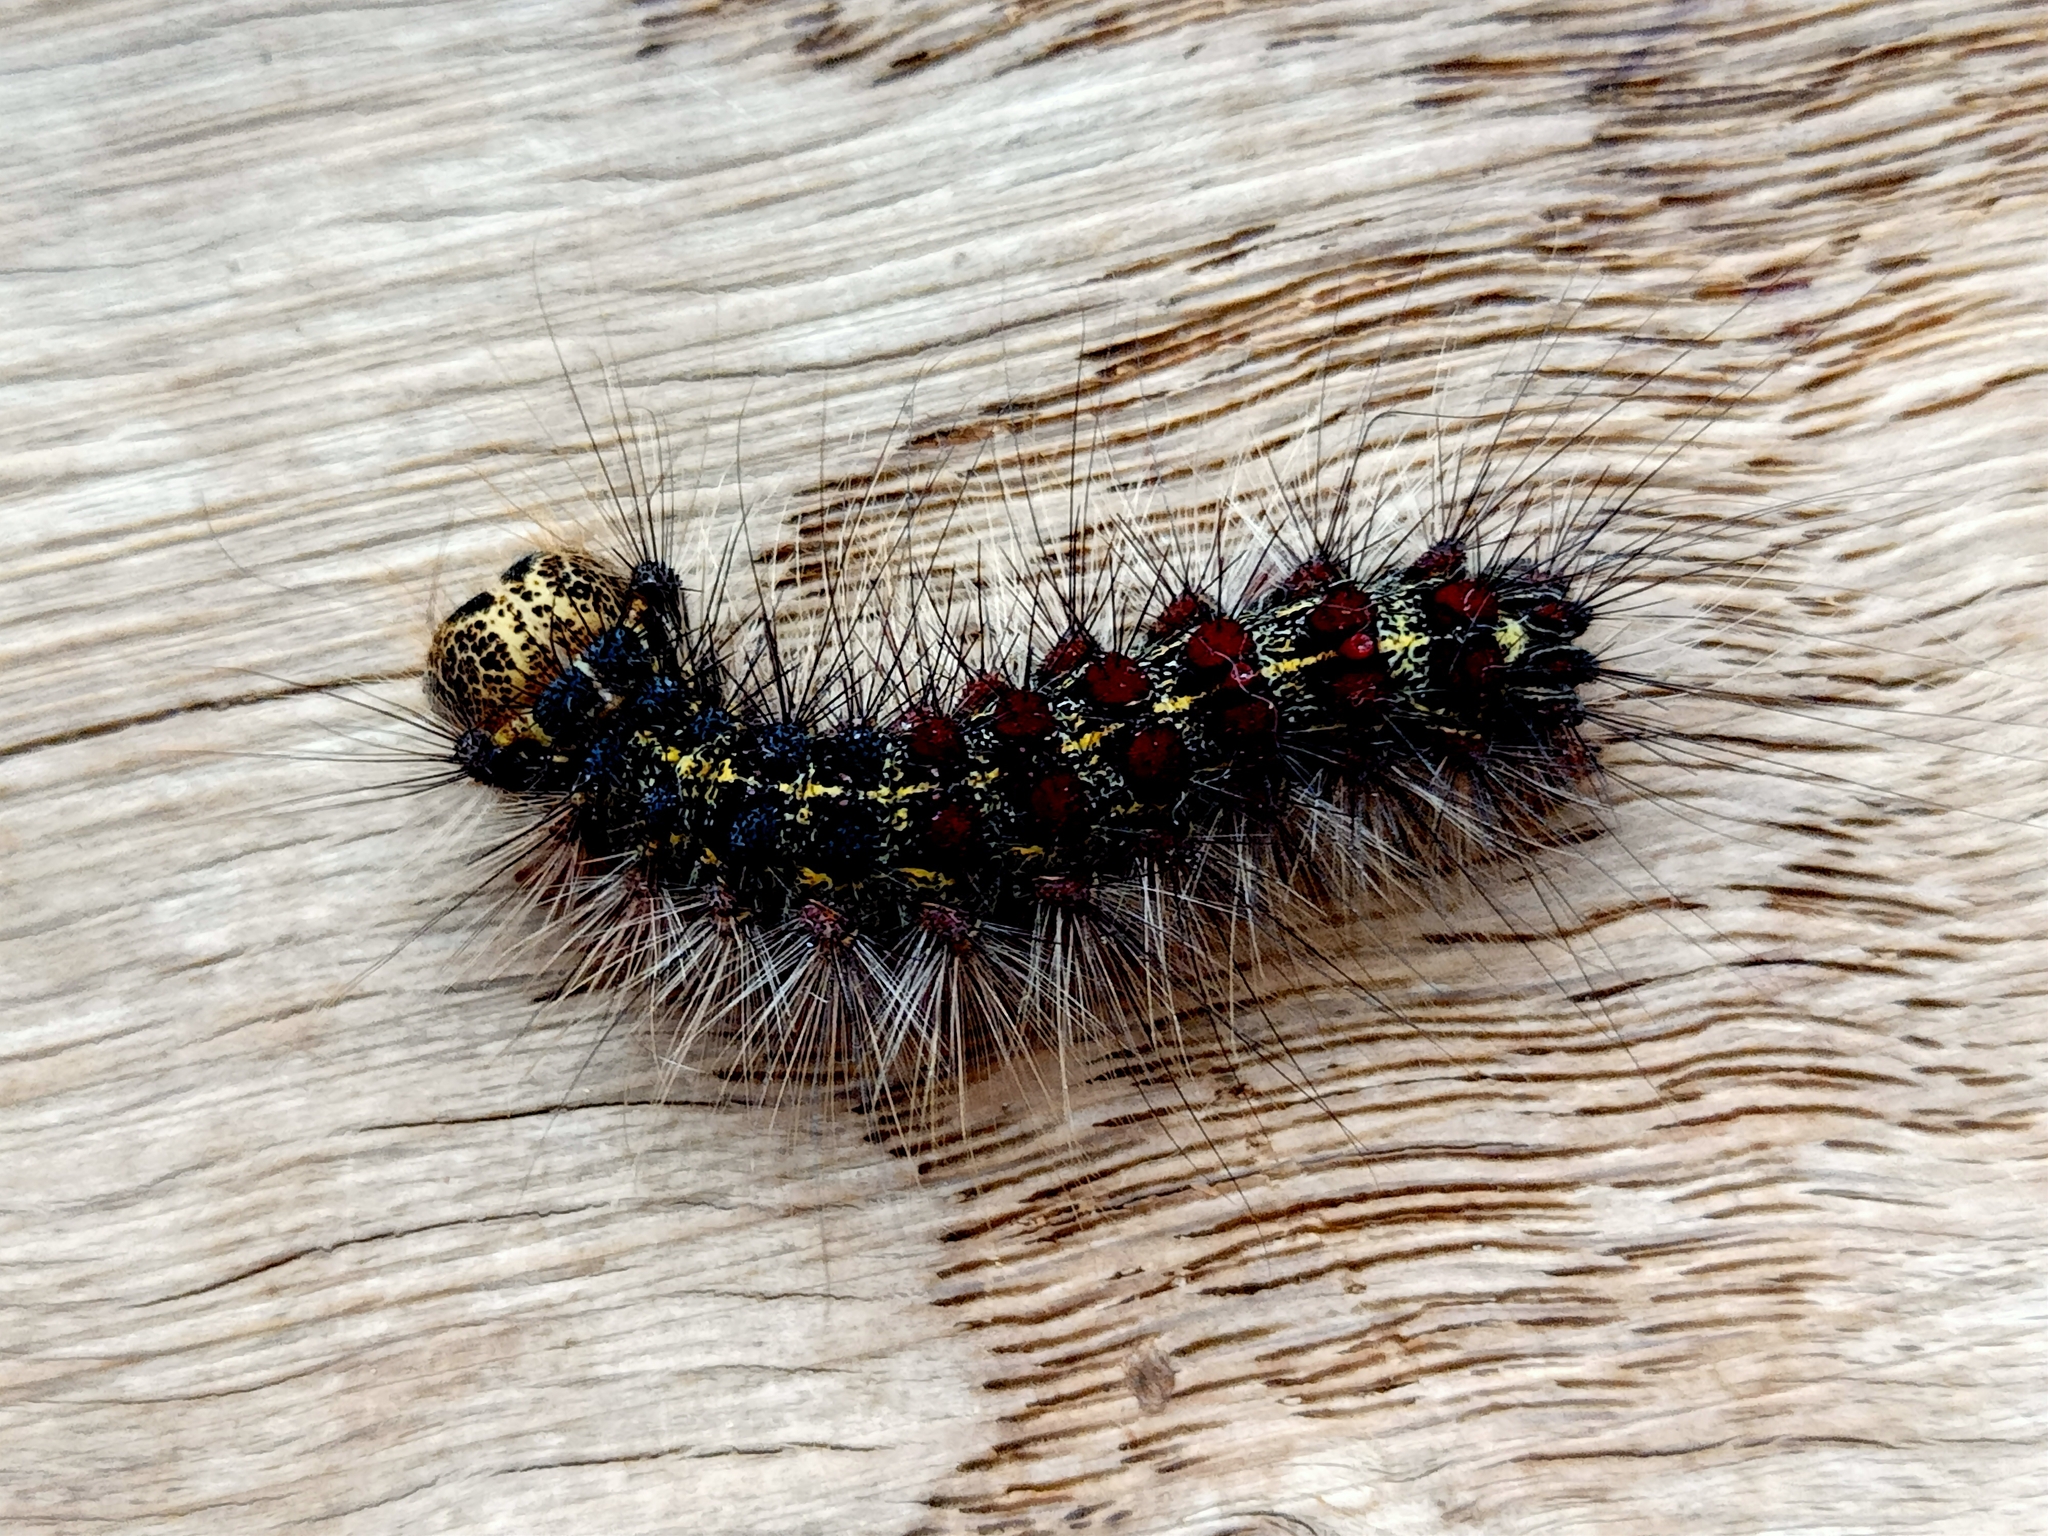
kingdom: Animalia
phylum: Arthropoda
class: Insecta
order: Lepidoptera
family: Erebidae
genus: Lymantria
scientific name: Lymantria dispar
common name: Gypsy moth
